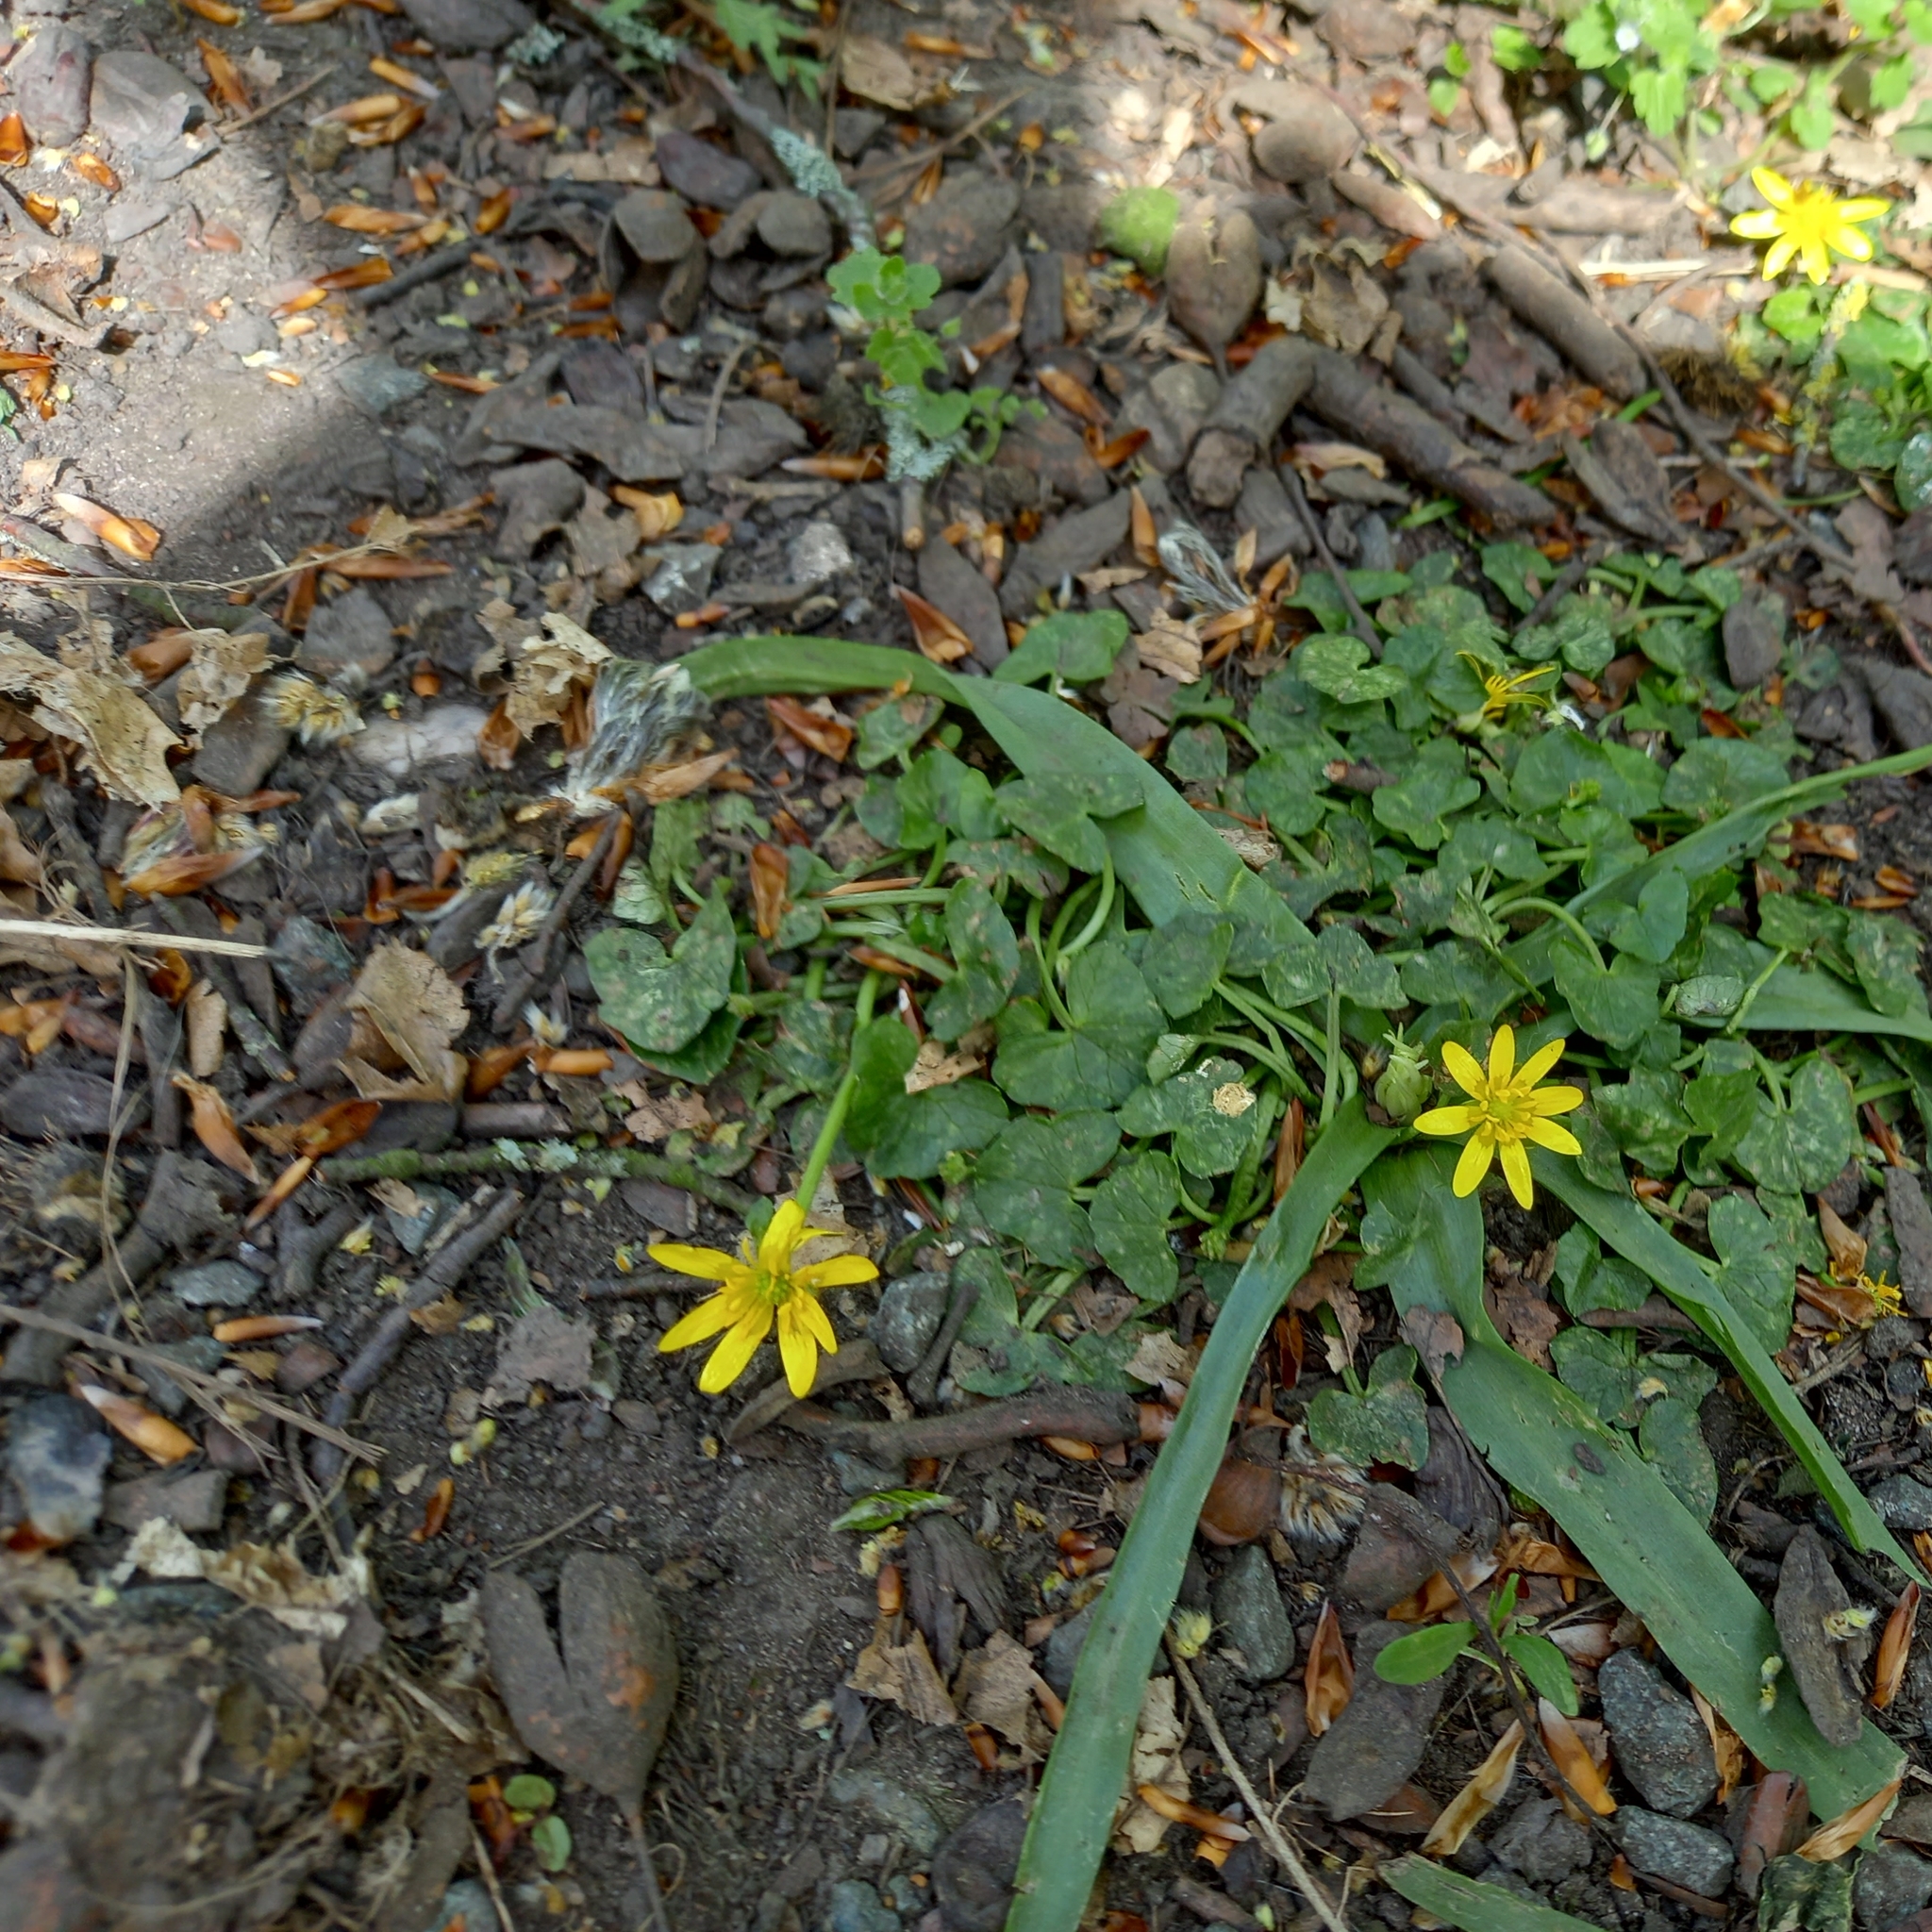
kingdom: Plantae
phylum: Tracheophyta
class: Magnoliopsida
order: Ranunculales
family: Ranunculaceae
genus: Ficaria
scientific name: Ficaria verna
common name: Lesser celandine
